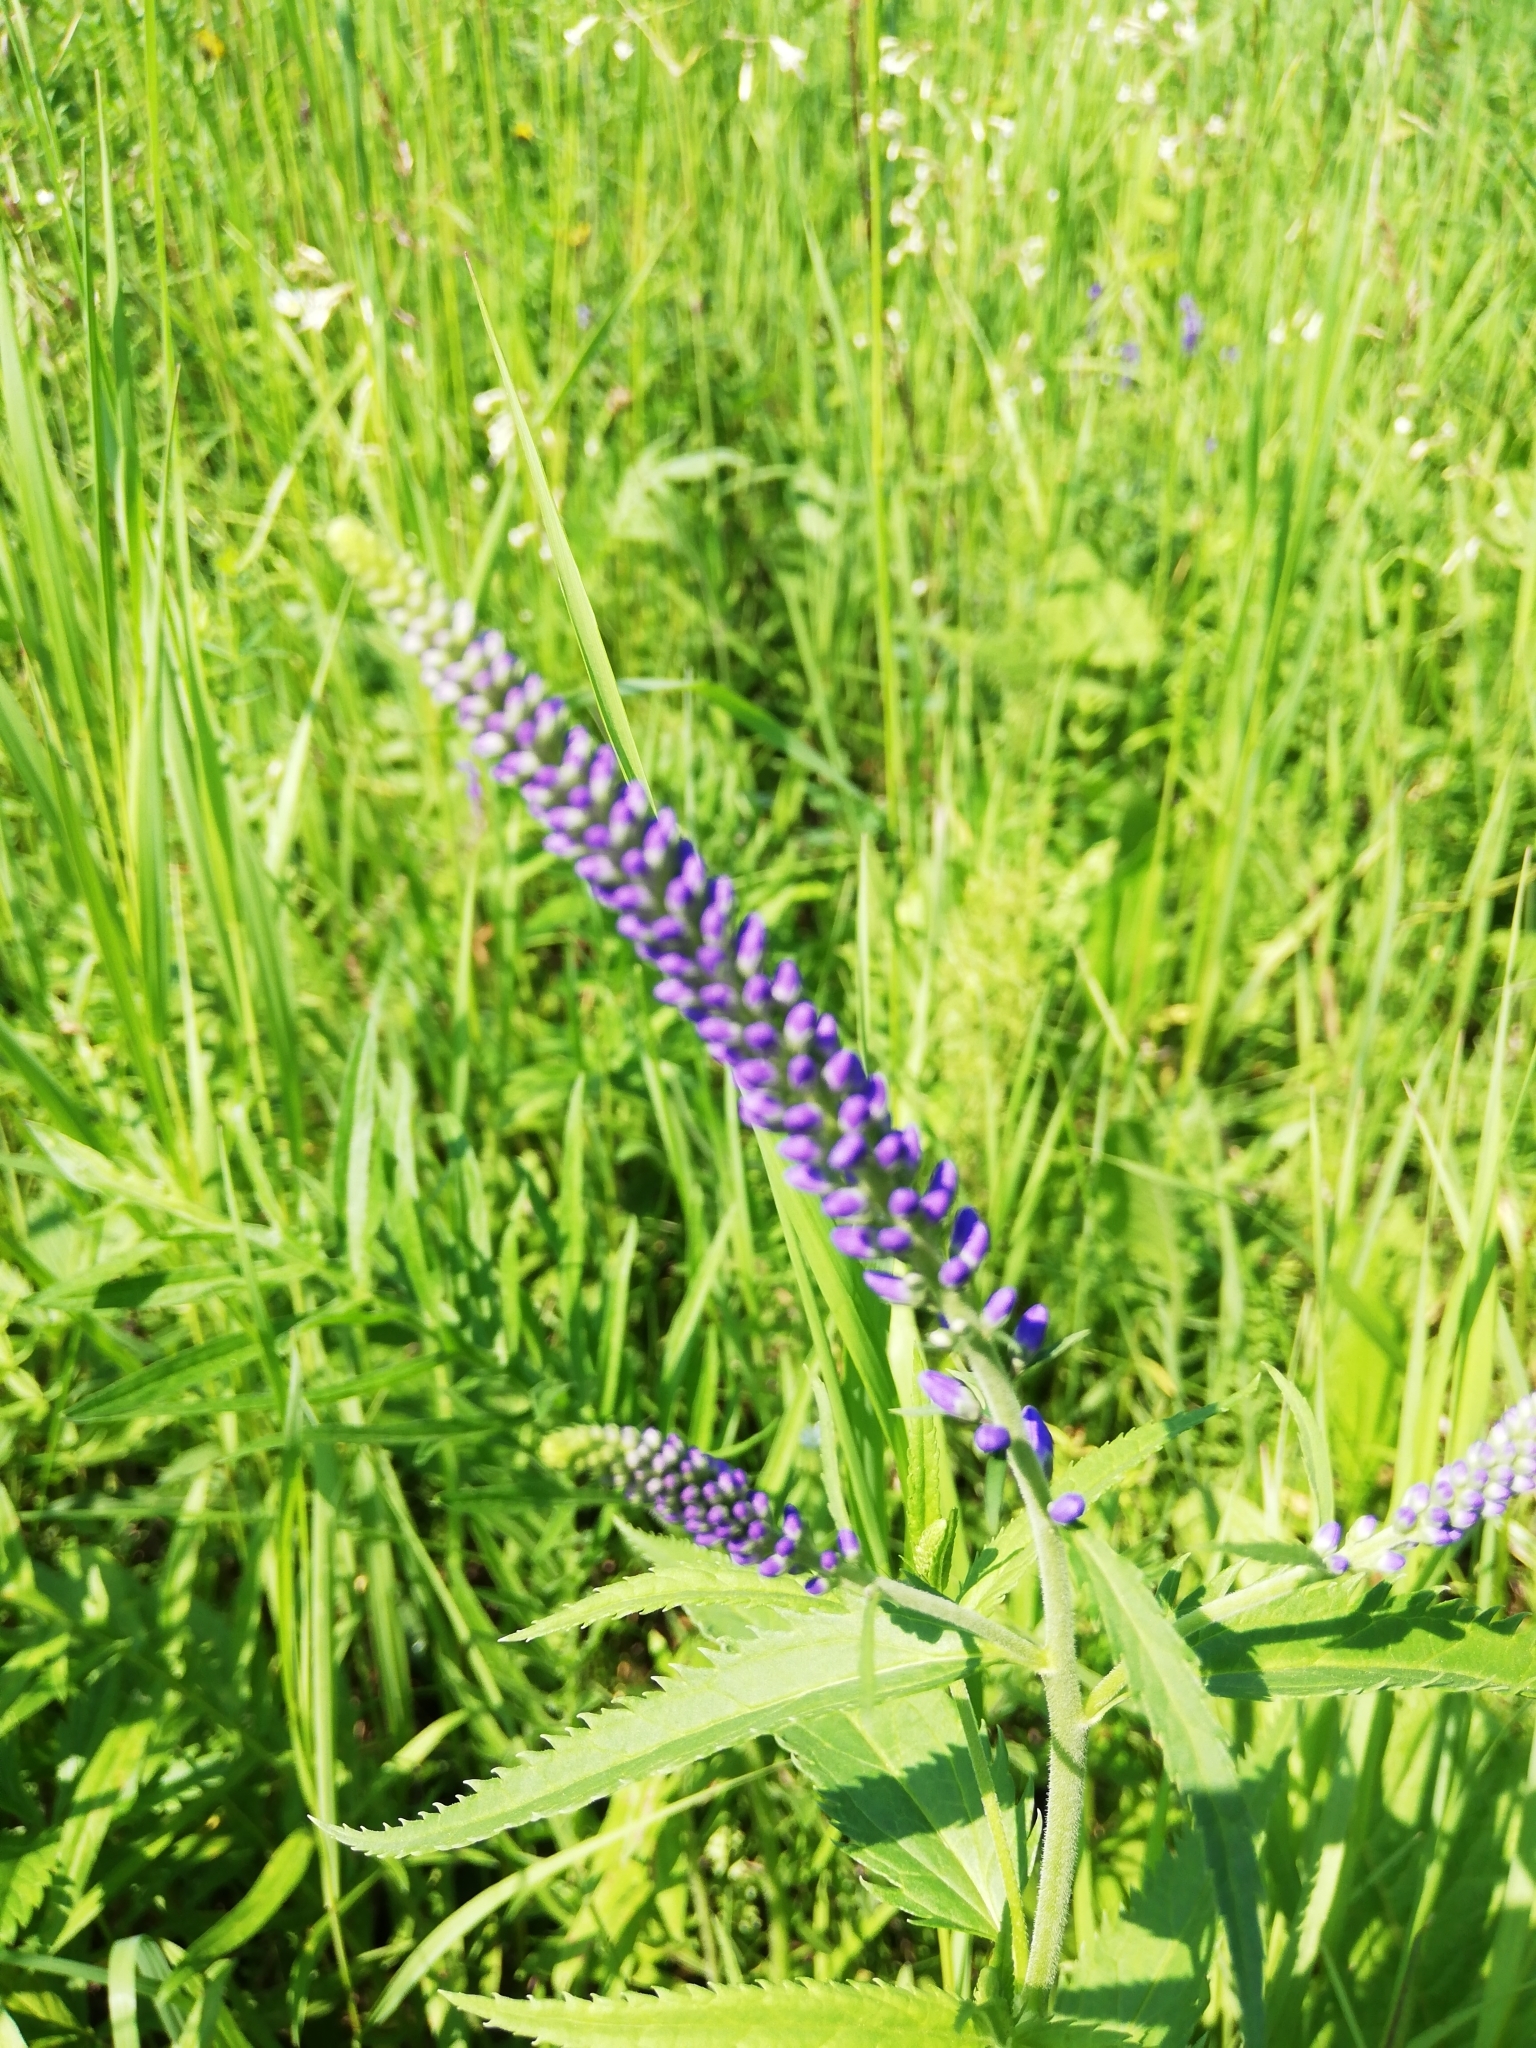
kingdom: Plantae
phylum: Tracheophyta
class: Magnoliopsida
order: Lamiales
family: Plantaginaceae
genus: Veronica
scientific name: Veronica longifolia
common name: Garden speedwell
